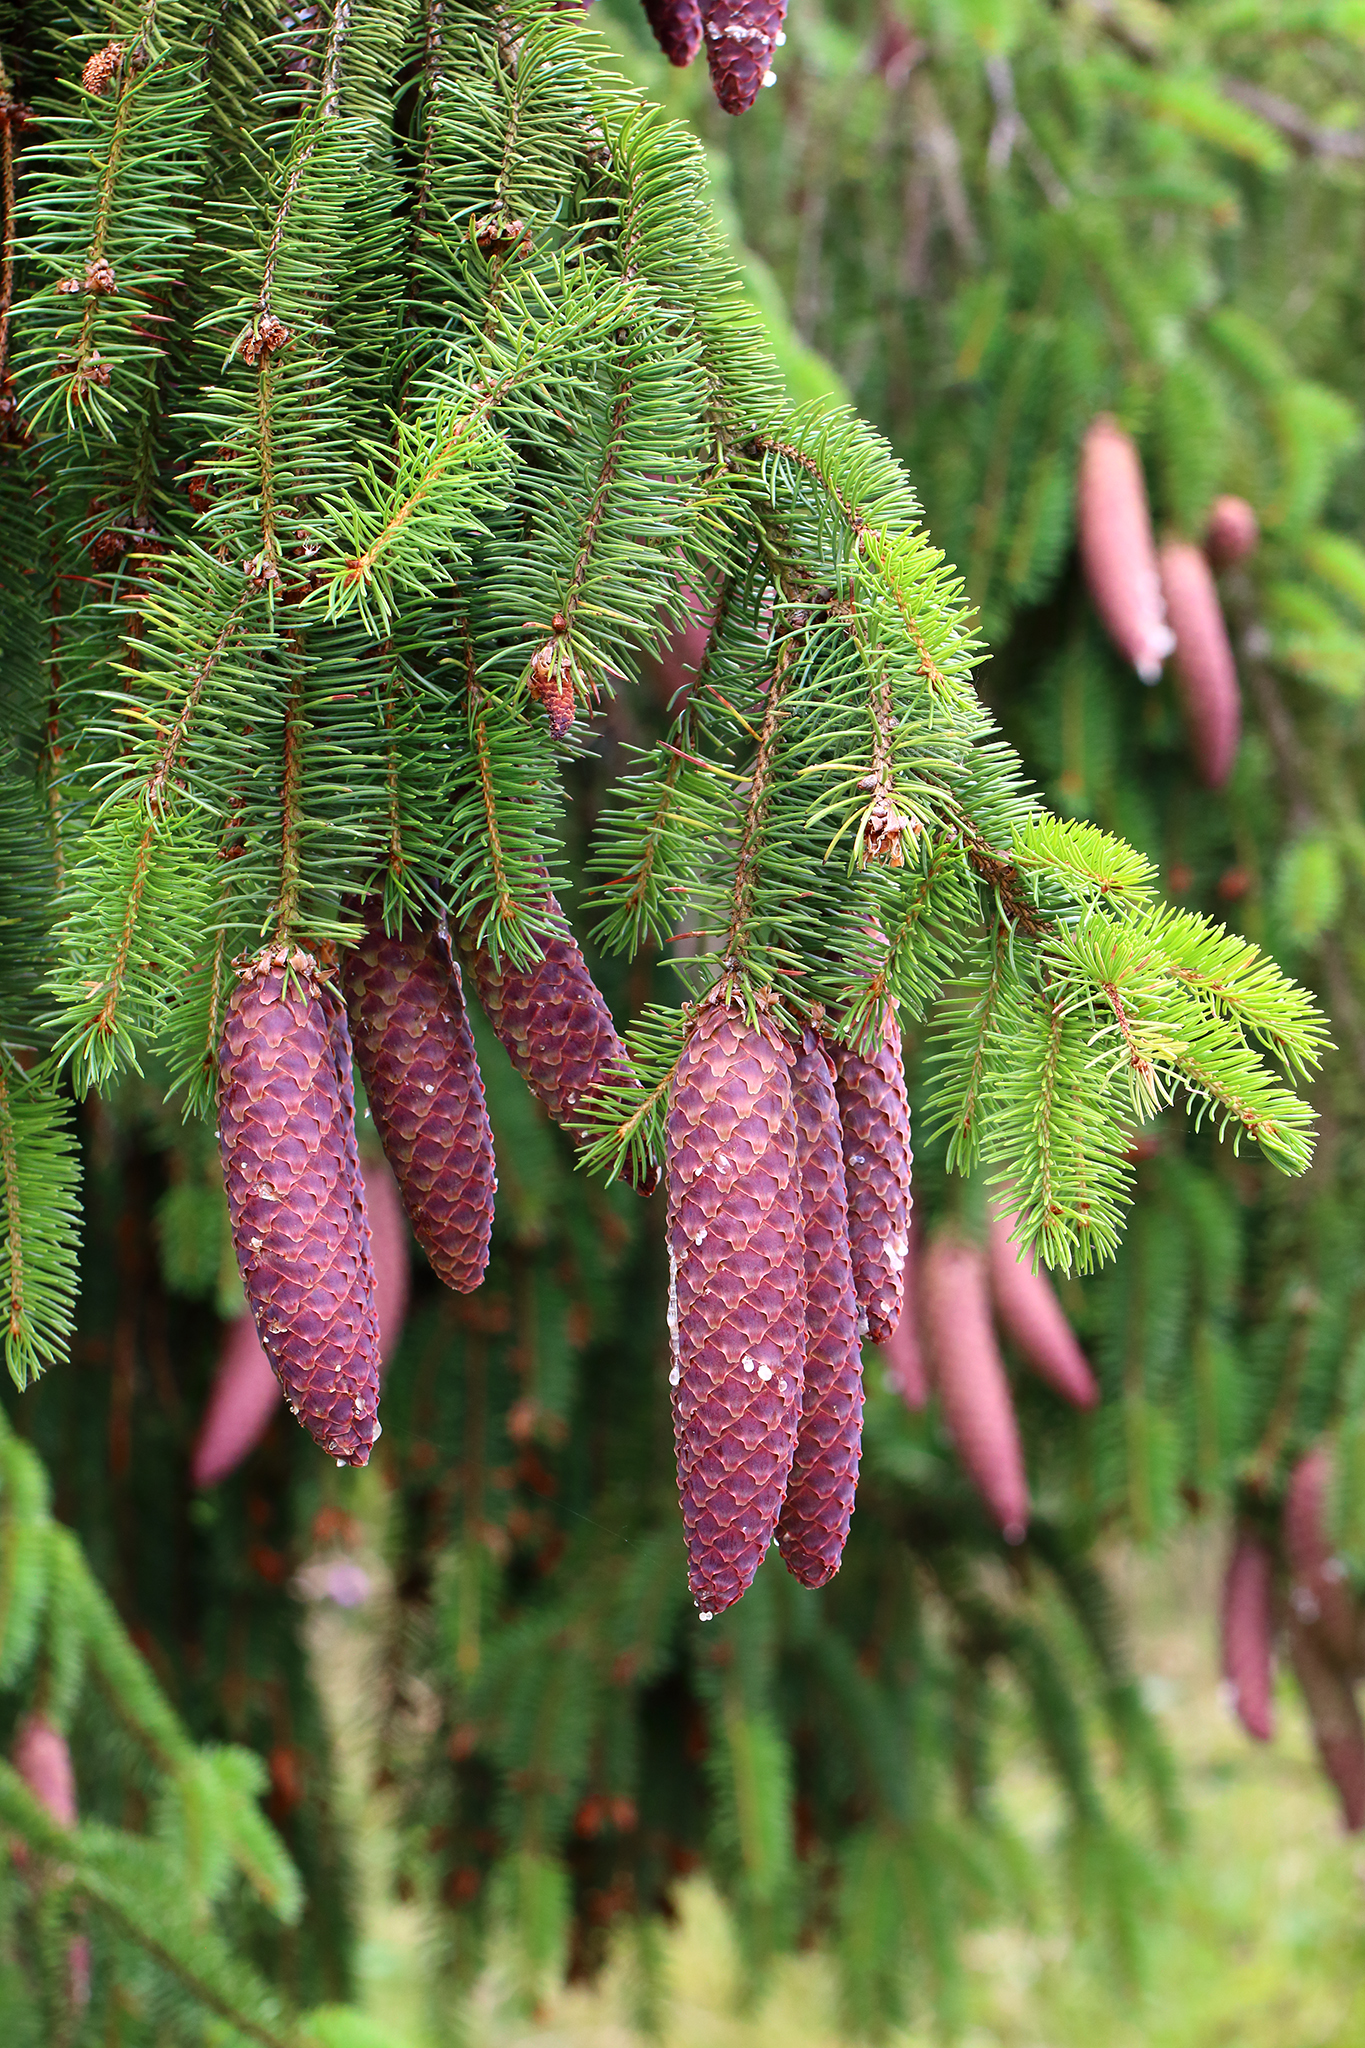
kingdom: Plantae
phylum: Tracheophyta
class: Pinopsida
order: Pinales
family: Pinaceae
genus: Picea
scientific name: Picea abies
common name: Norway spruce
